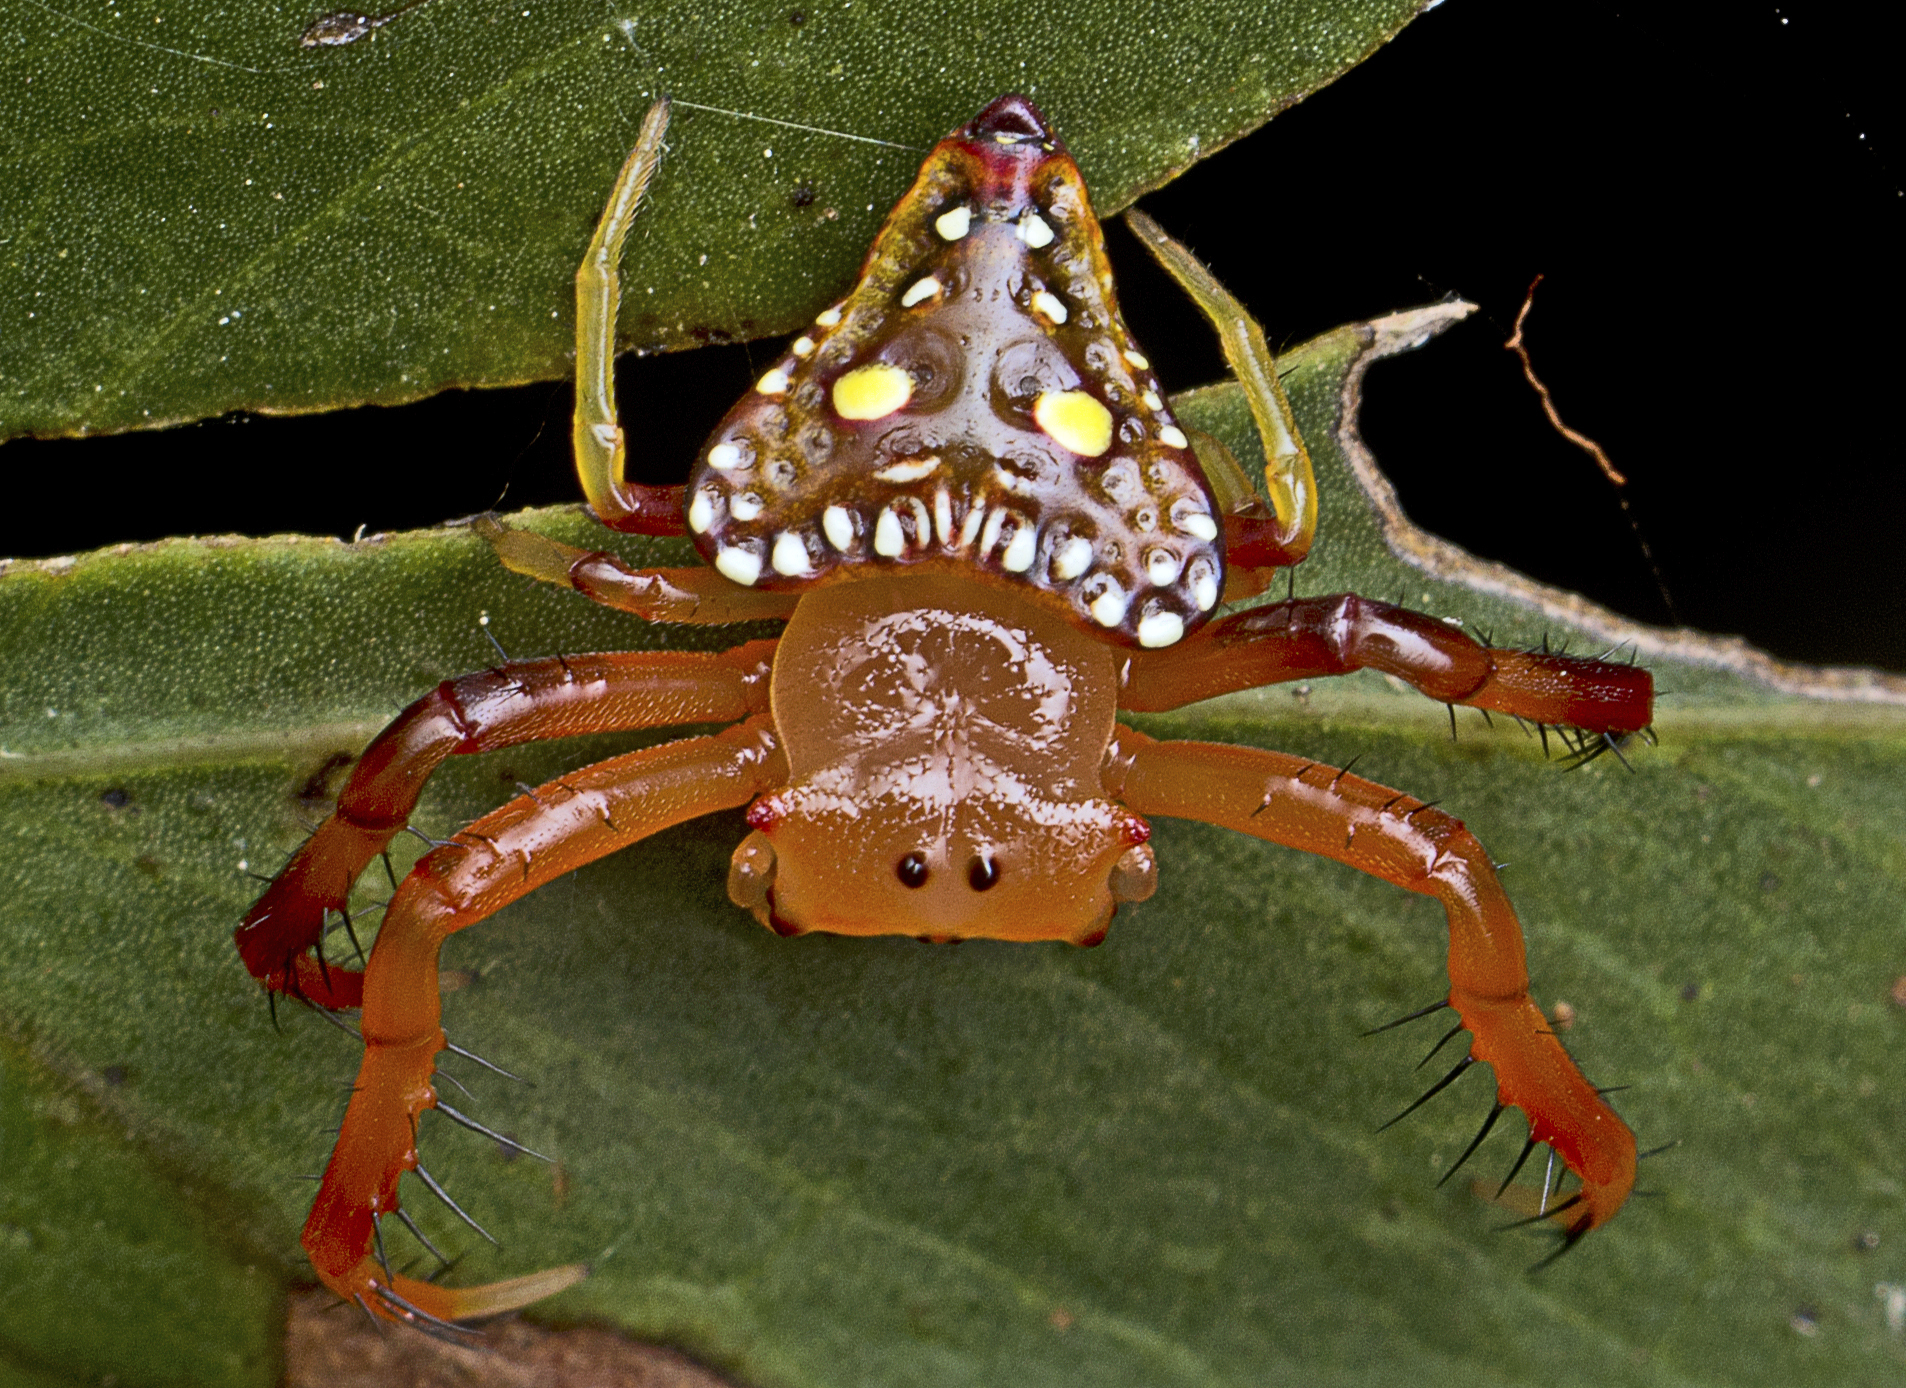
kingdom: Animalia
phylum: Arthropoda
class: Arachnida
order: Araneae
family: Arkyidae
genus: Arkys
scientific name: Arkys lancearius
